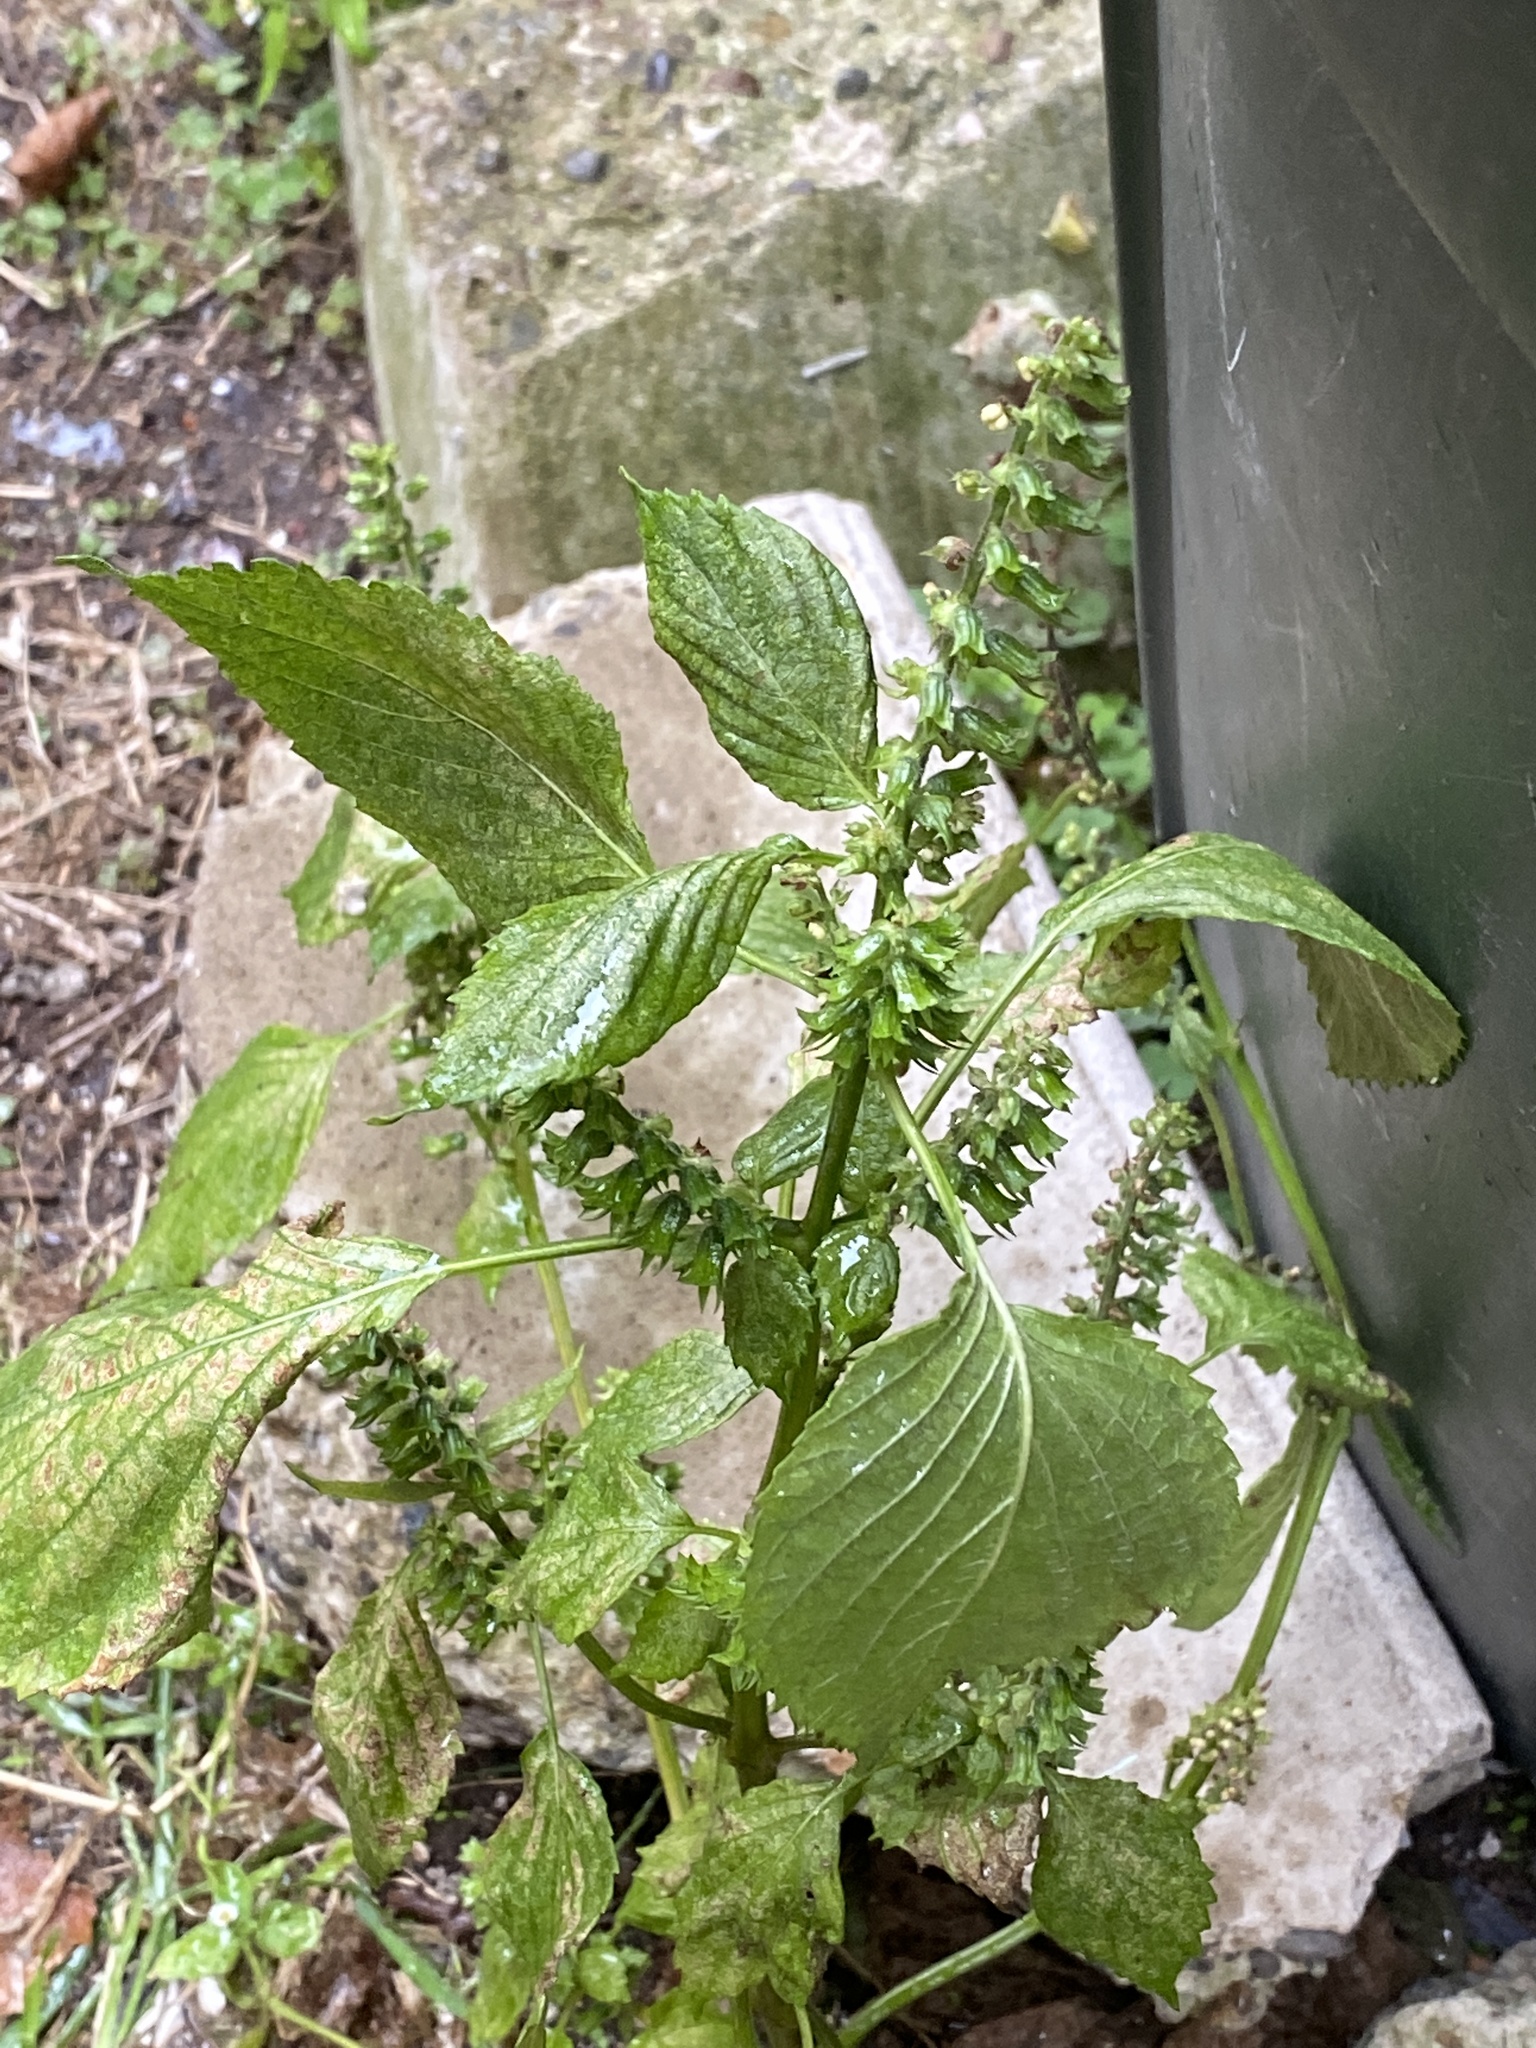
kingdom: Plantae
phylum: Tracheophyta
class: Magnoliopsida
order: Lamiales
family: Lamiaceae
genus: Perilla
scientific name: Perilla frutescens
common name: Perilla
